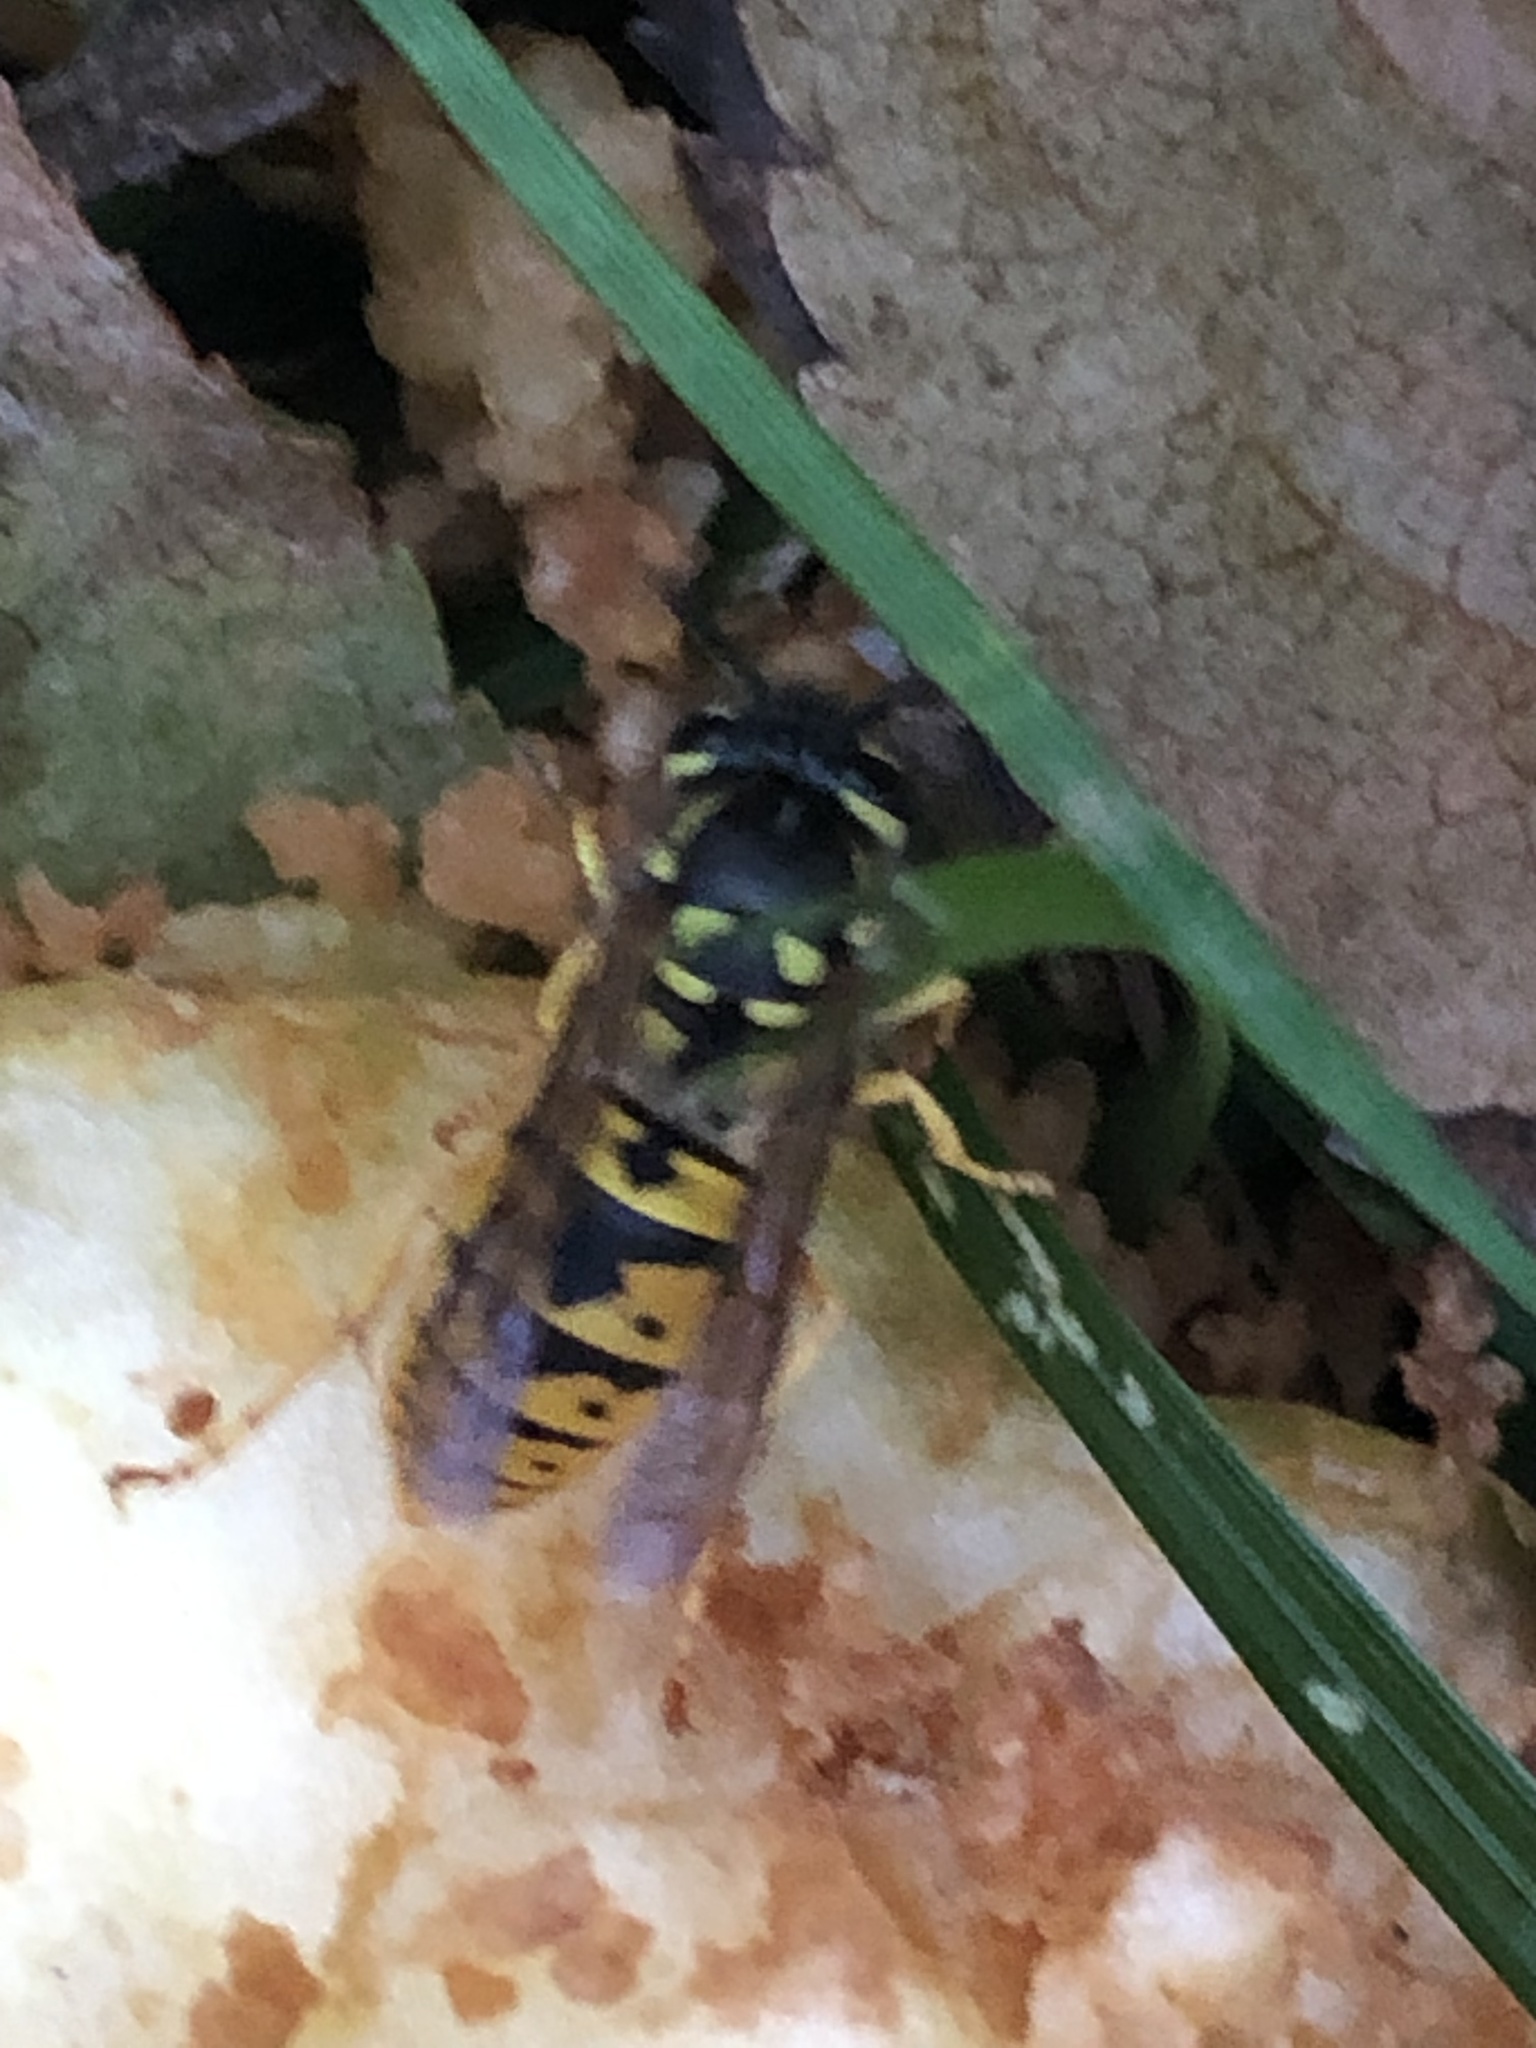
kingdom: Animalia
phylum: Arthropoda
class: Insecta
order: Hymenoptera
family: Vespidae
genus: Vespula
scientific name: Vespula germanica
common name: German wasp
